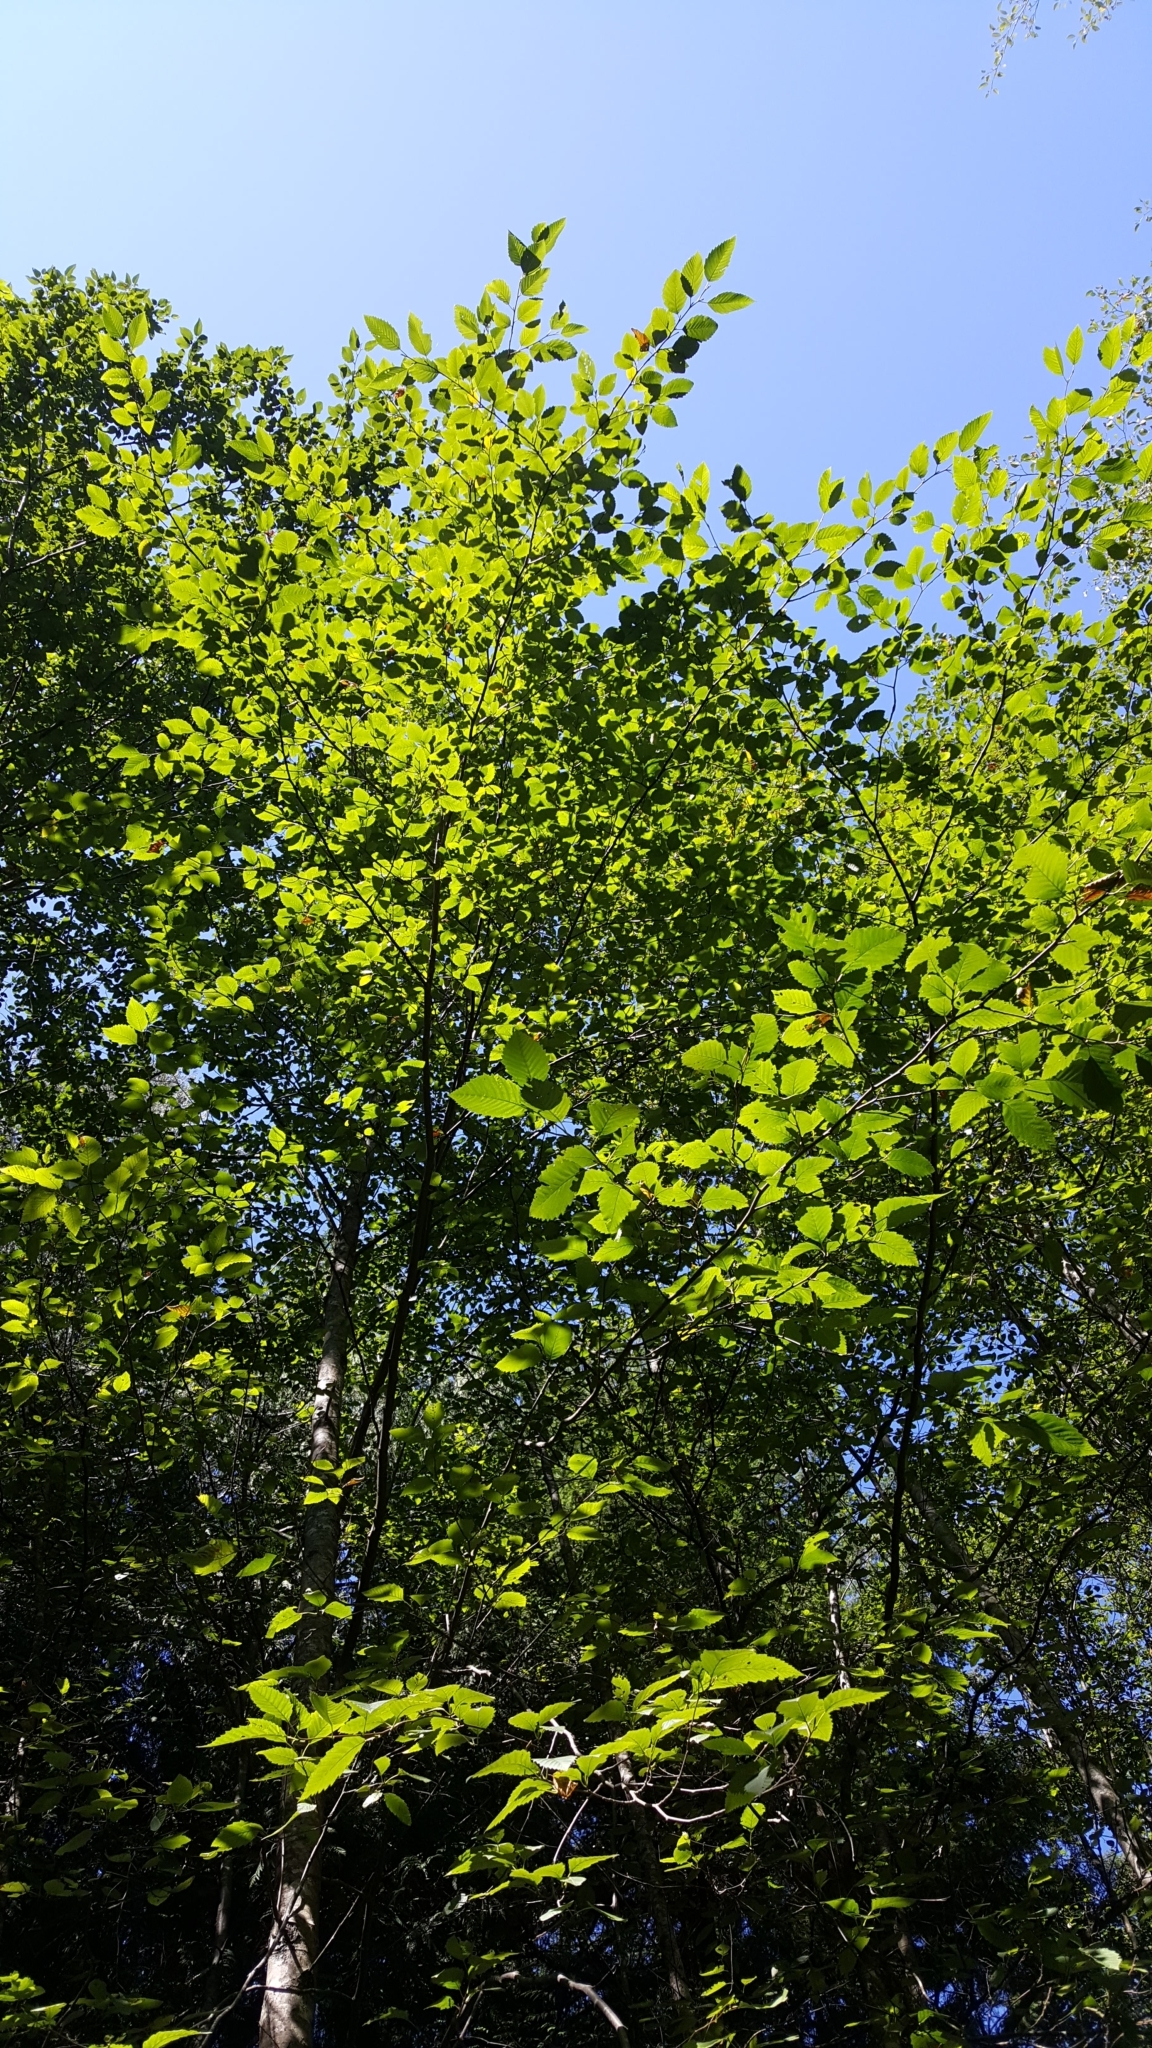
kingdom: Plantae
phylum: Tracheophyta
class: Magnoliopsida
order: Fagales
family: Betulaceae
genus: Alnus
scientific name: Alnus rubra
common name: Red alder
